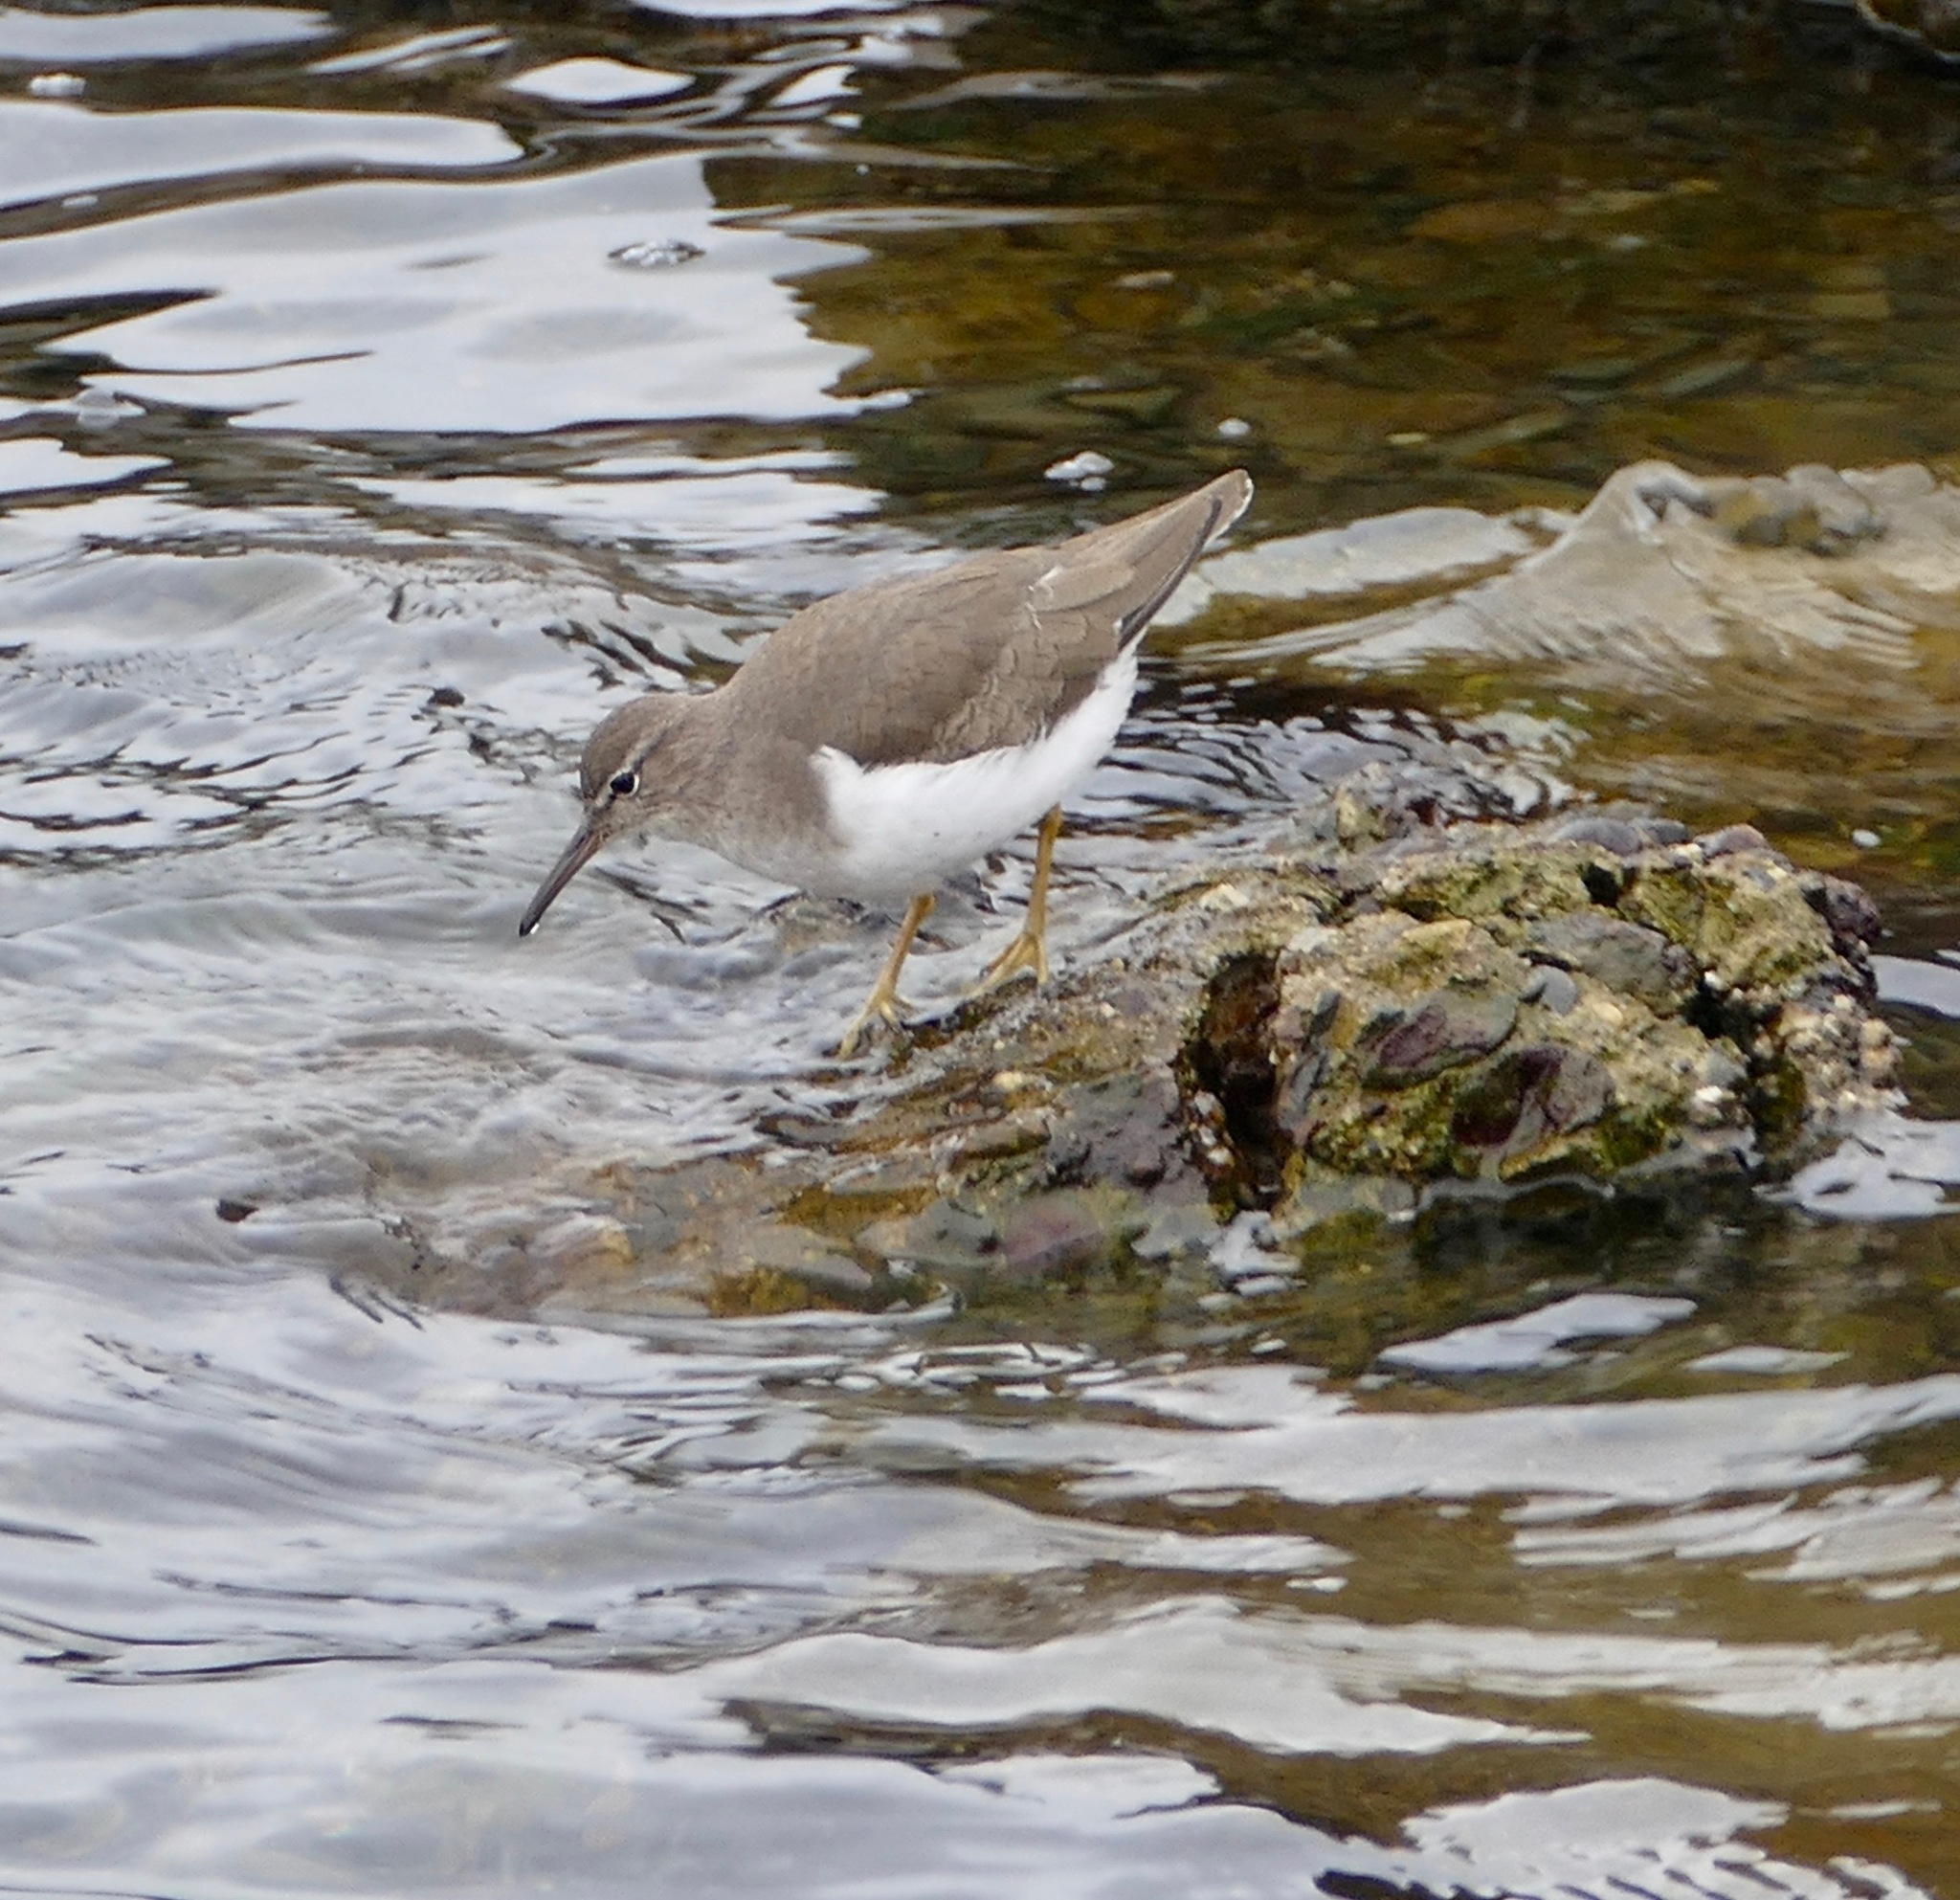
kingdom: Animalia
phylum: Chordata
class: Aves
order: Charadriiformes
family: Scolopacidae
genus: Actitis
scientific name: Actitis macularius
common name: Spotted sandpiper
